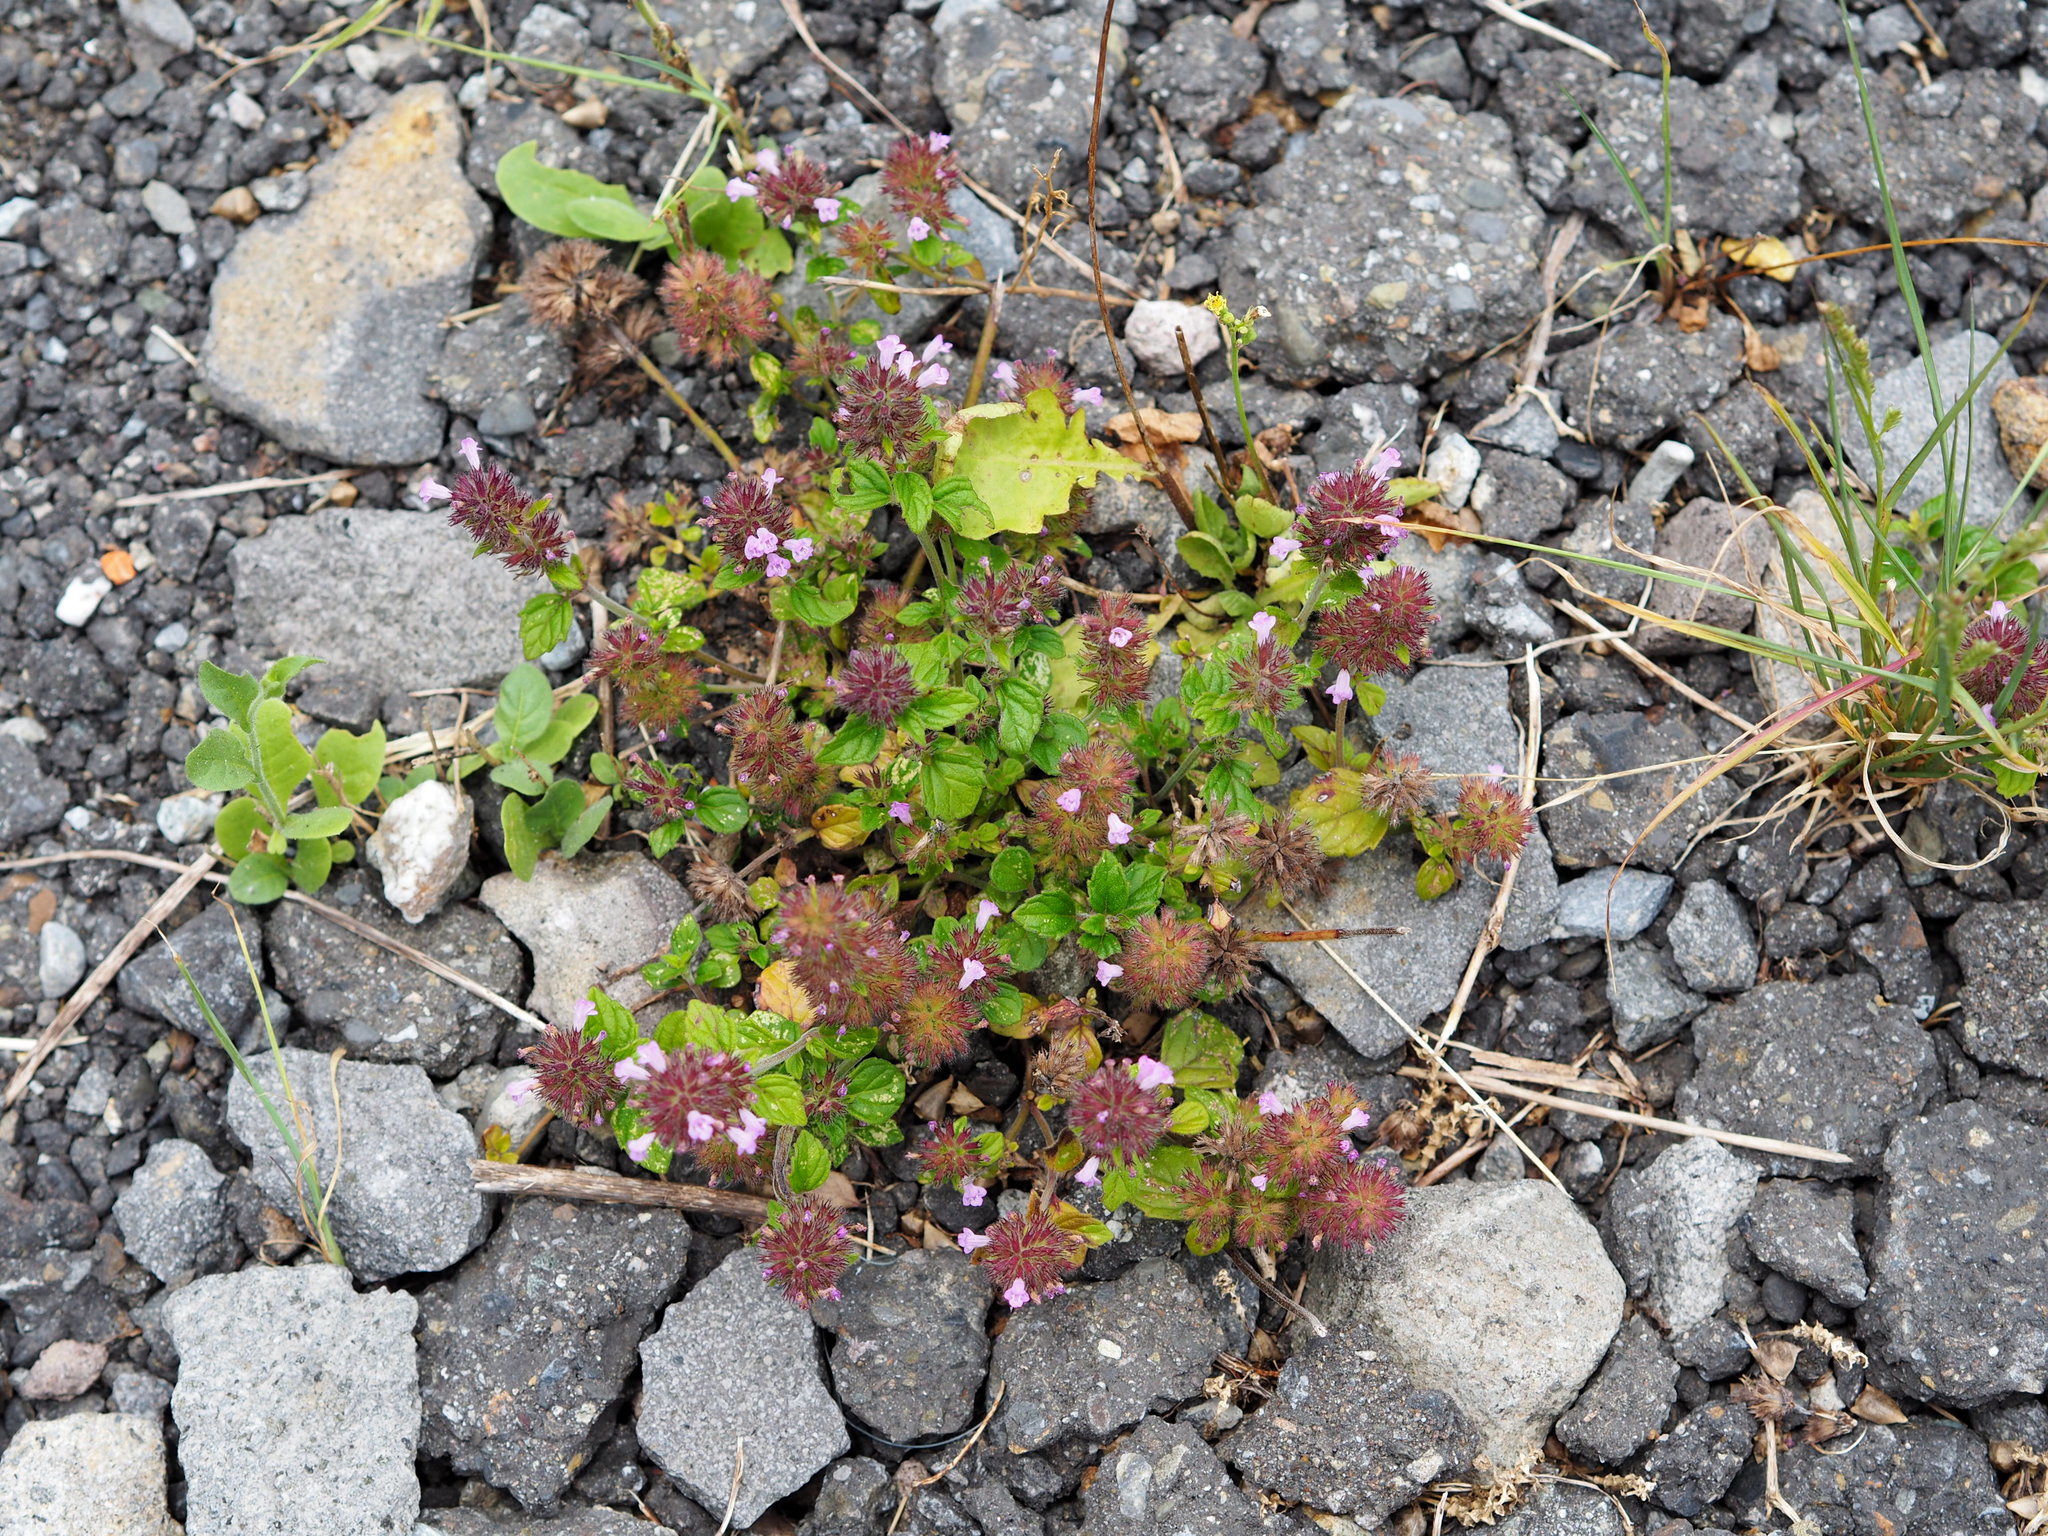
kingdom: Plantae
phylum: Tracheophyta
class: Magnoliopsida
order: Lamiales
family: Lamiaceae
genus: Clinopodium
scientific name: Clinopodium chinense
